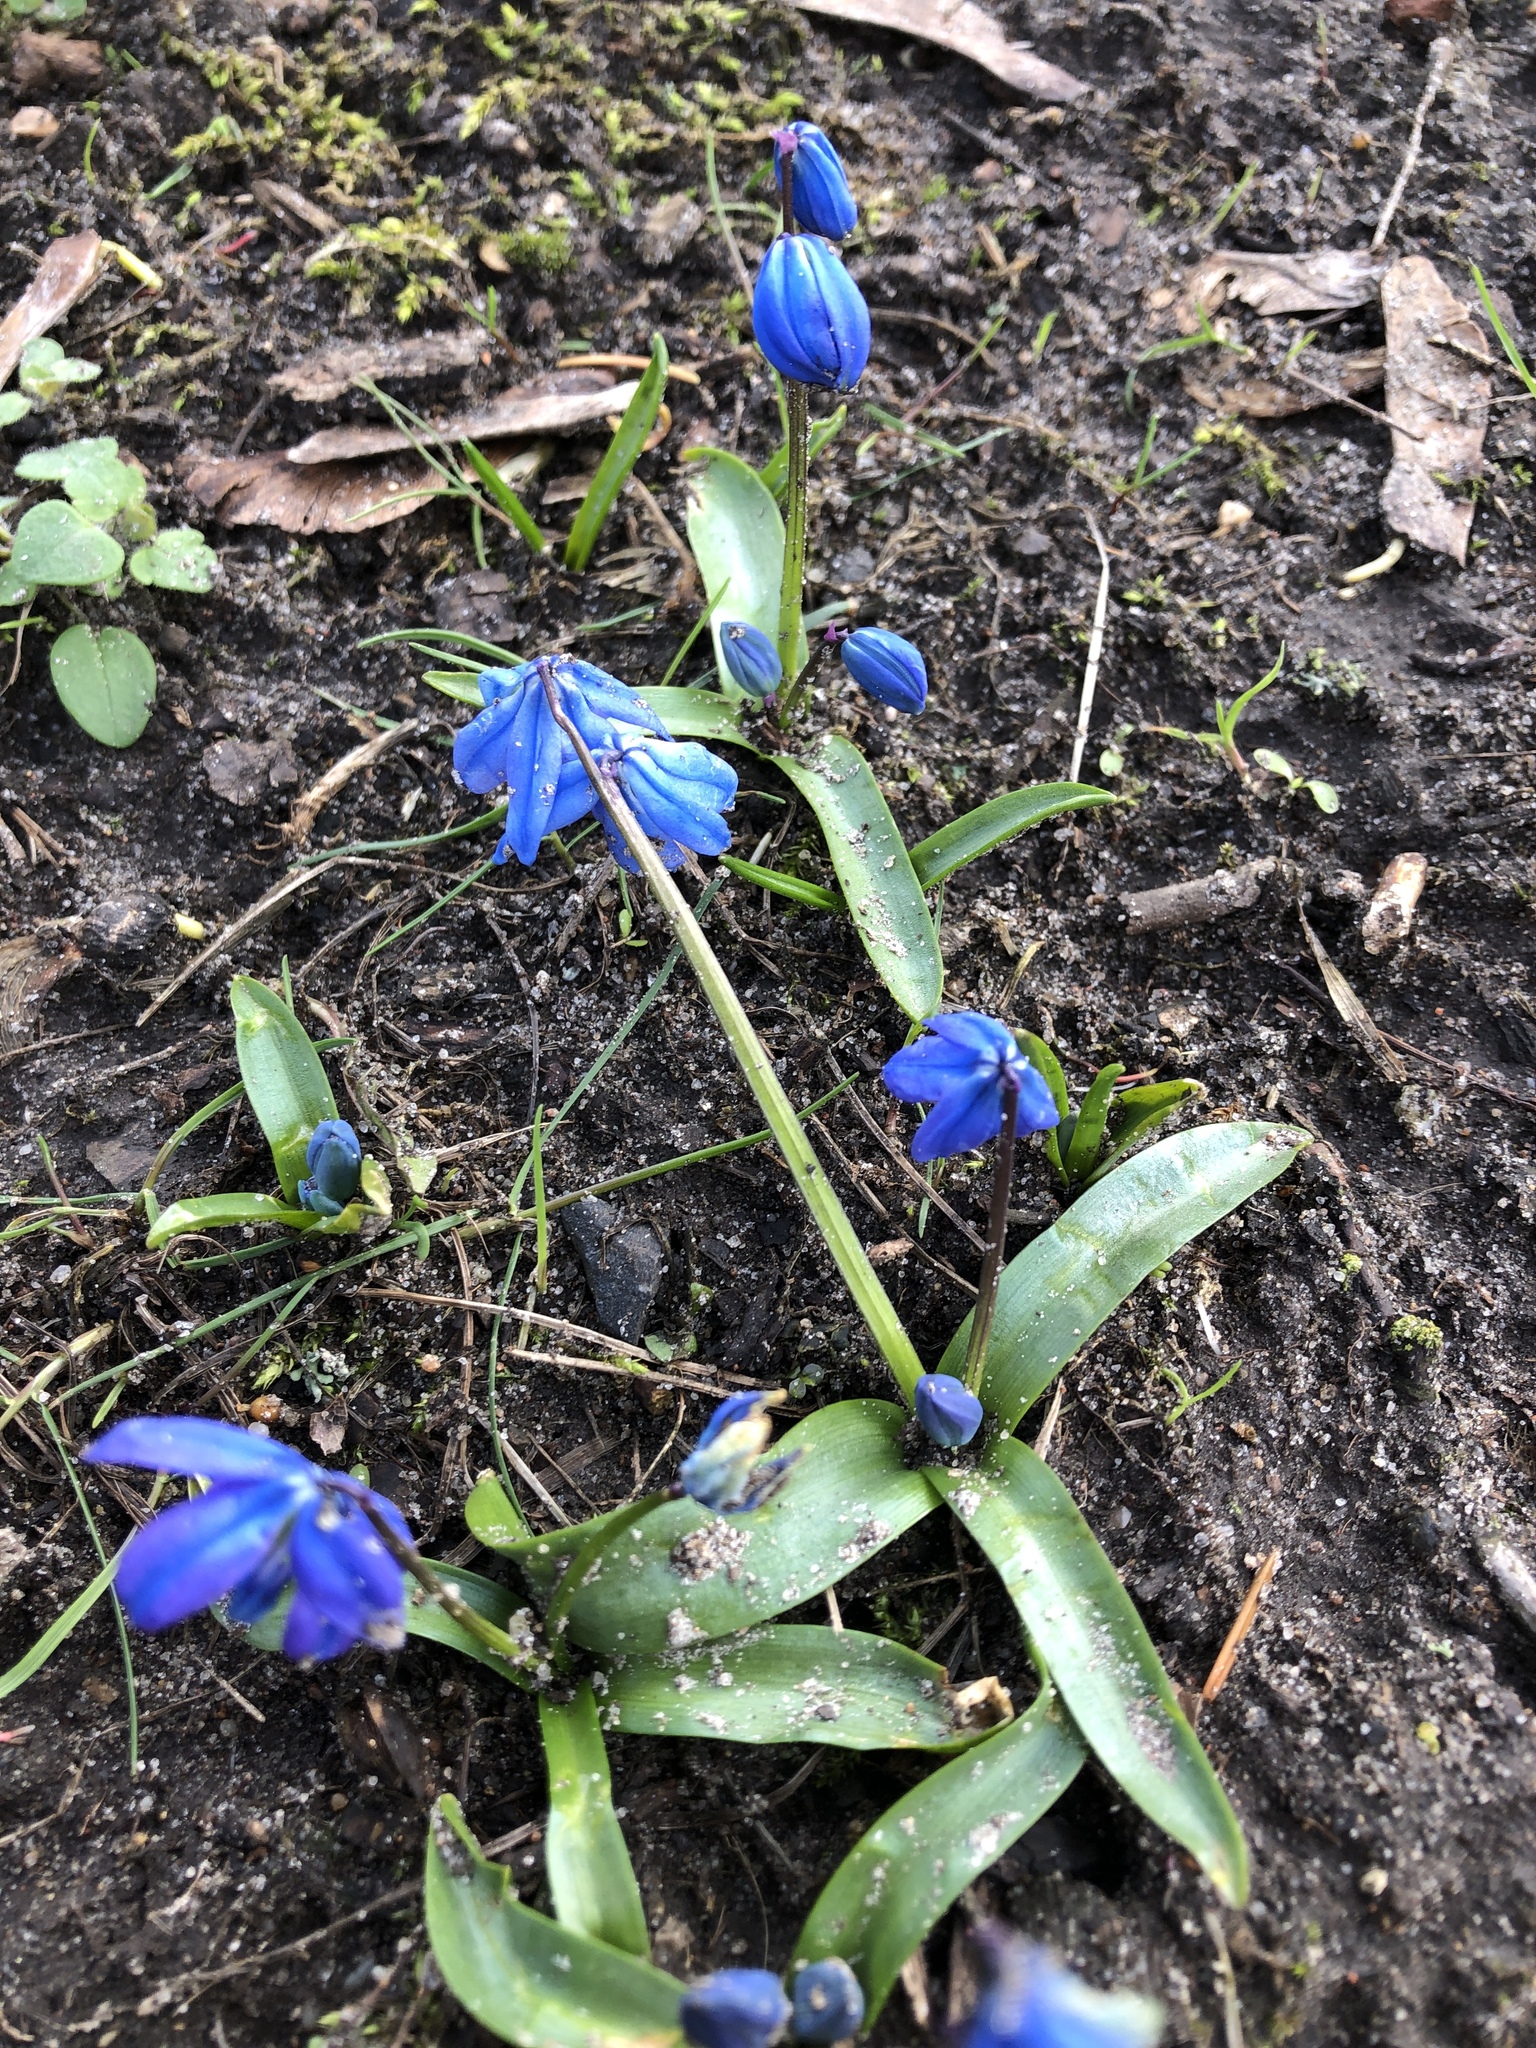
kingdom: Plantae
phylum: Tracheophyta
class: Liliopsida
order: Asparagales
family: Asparagaceae
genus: Scilla
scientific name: Scilla siberica
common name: Siberian squill
